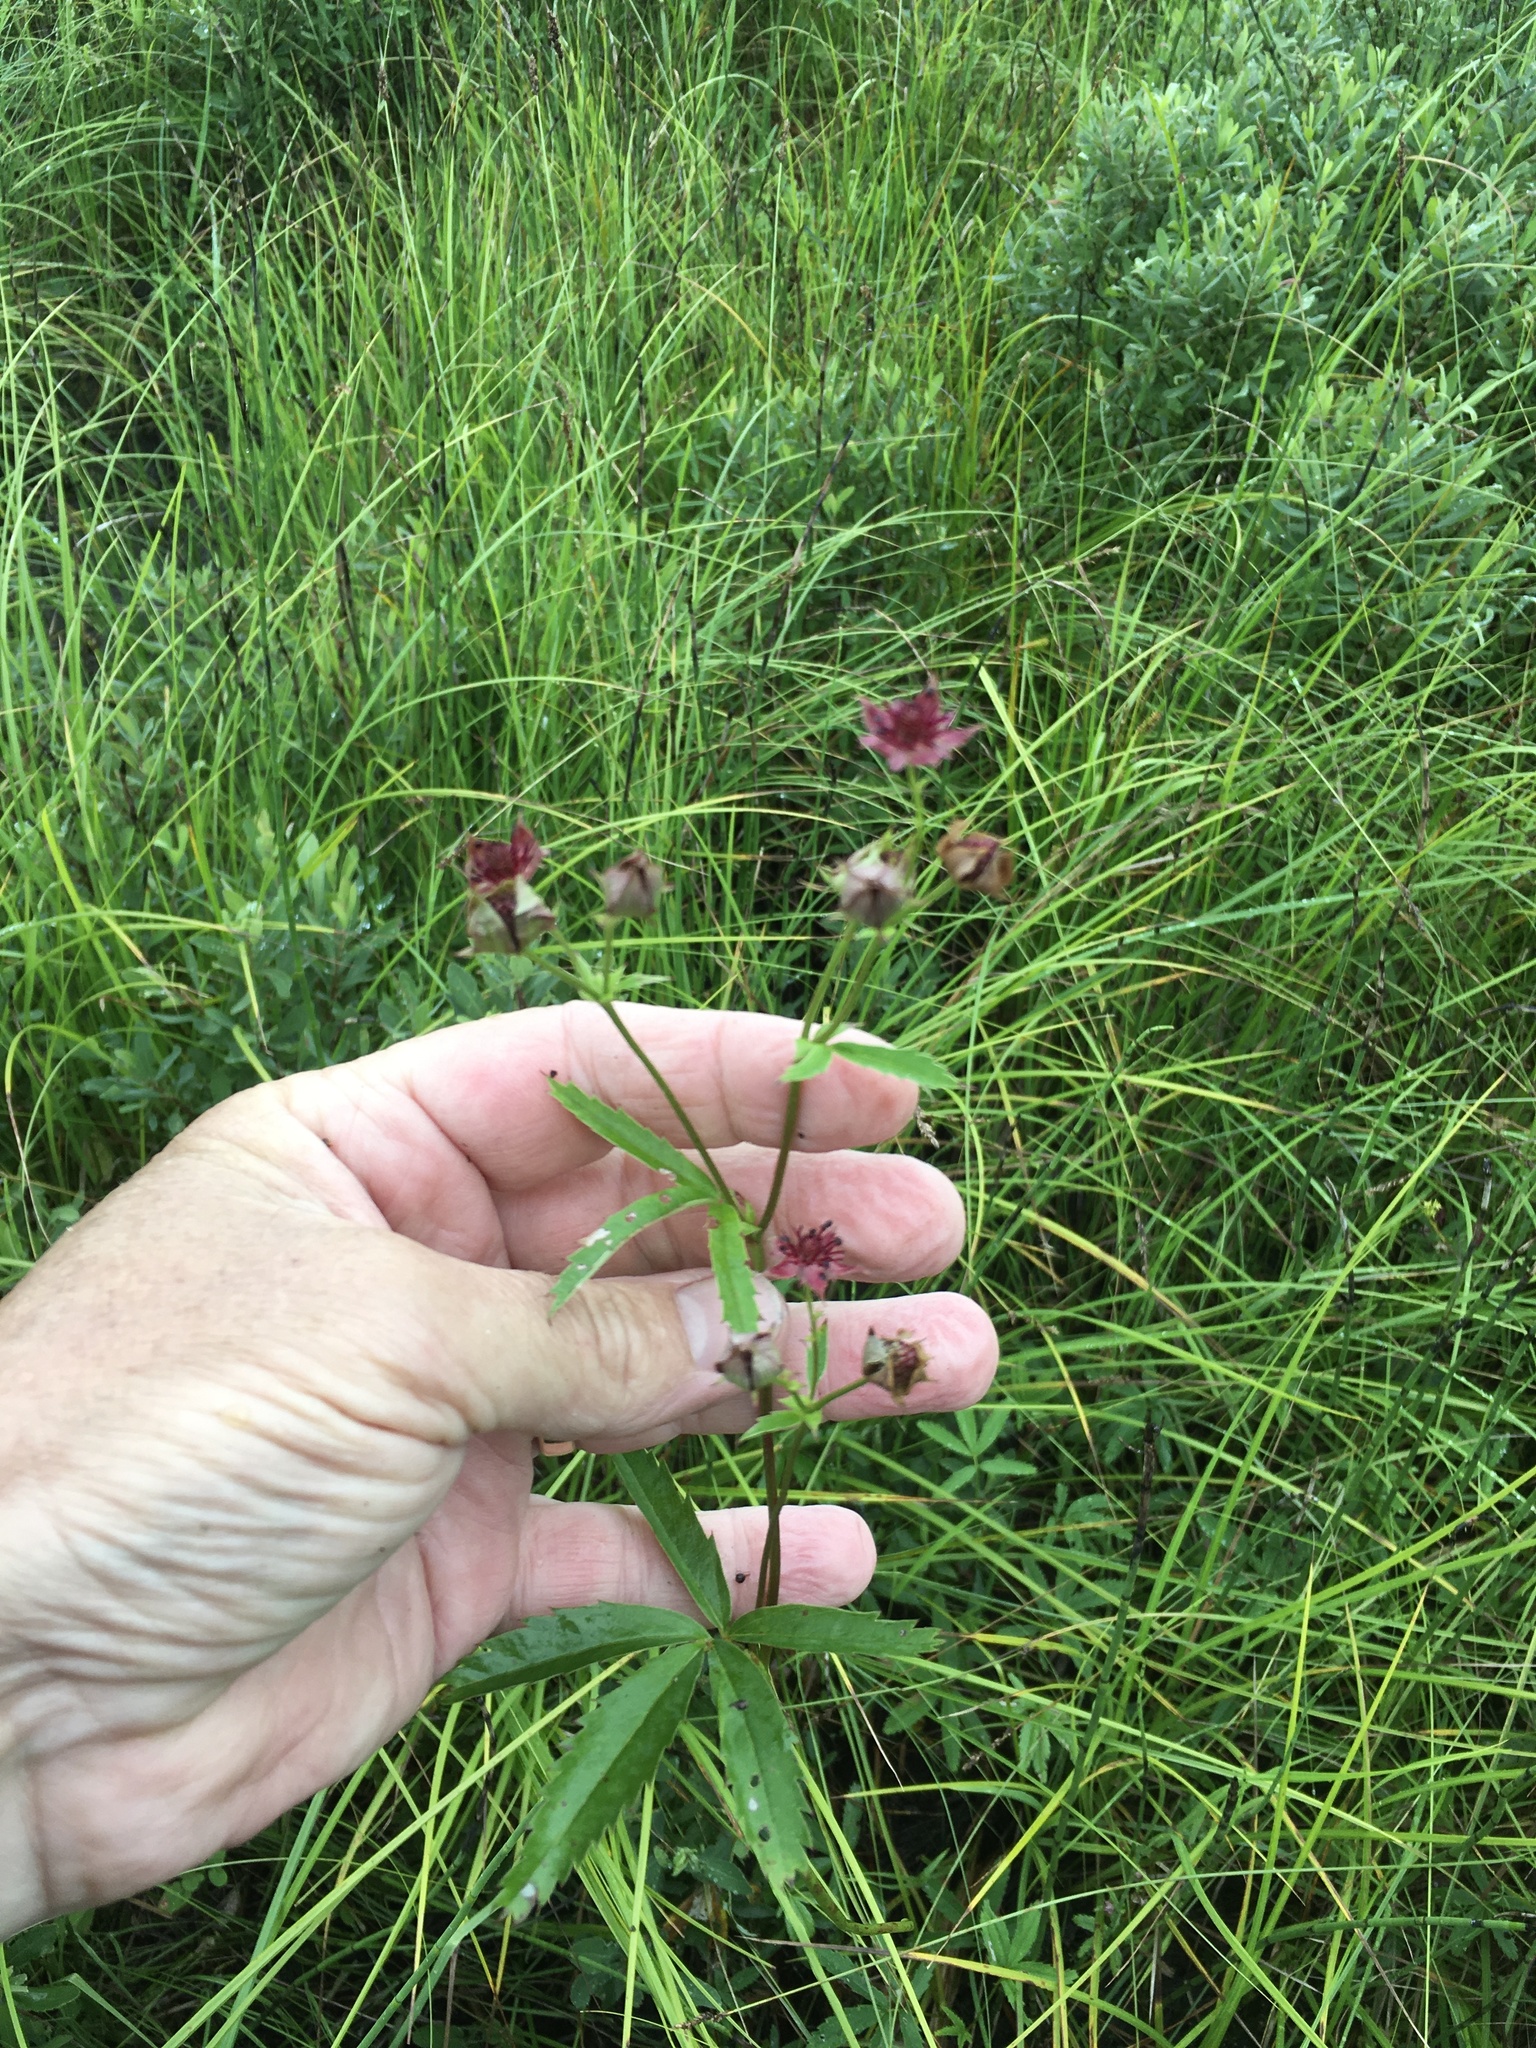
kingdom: Plantae
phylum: Tracheophyta
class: Magnoliopsida
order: Rosales
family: Rosaceae
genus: Comarum
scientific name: Comarum palustre
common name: Marsh cinquefoil
